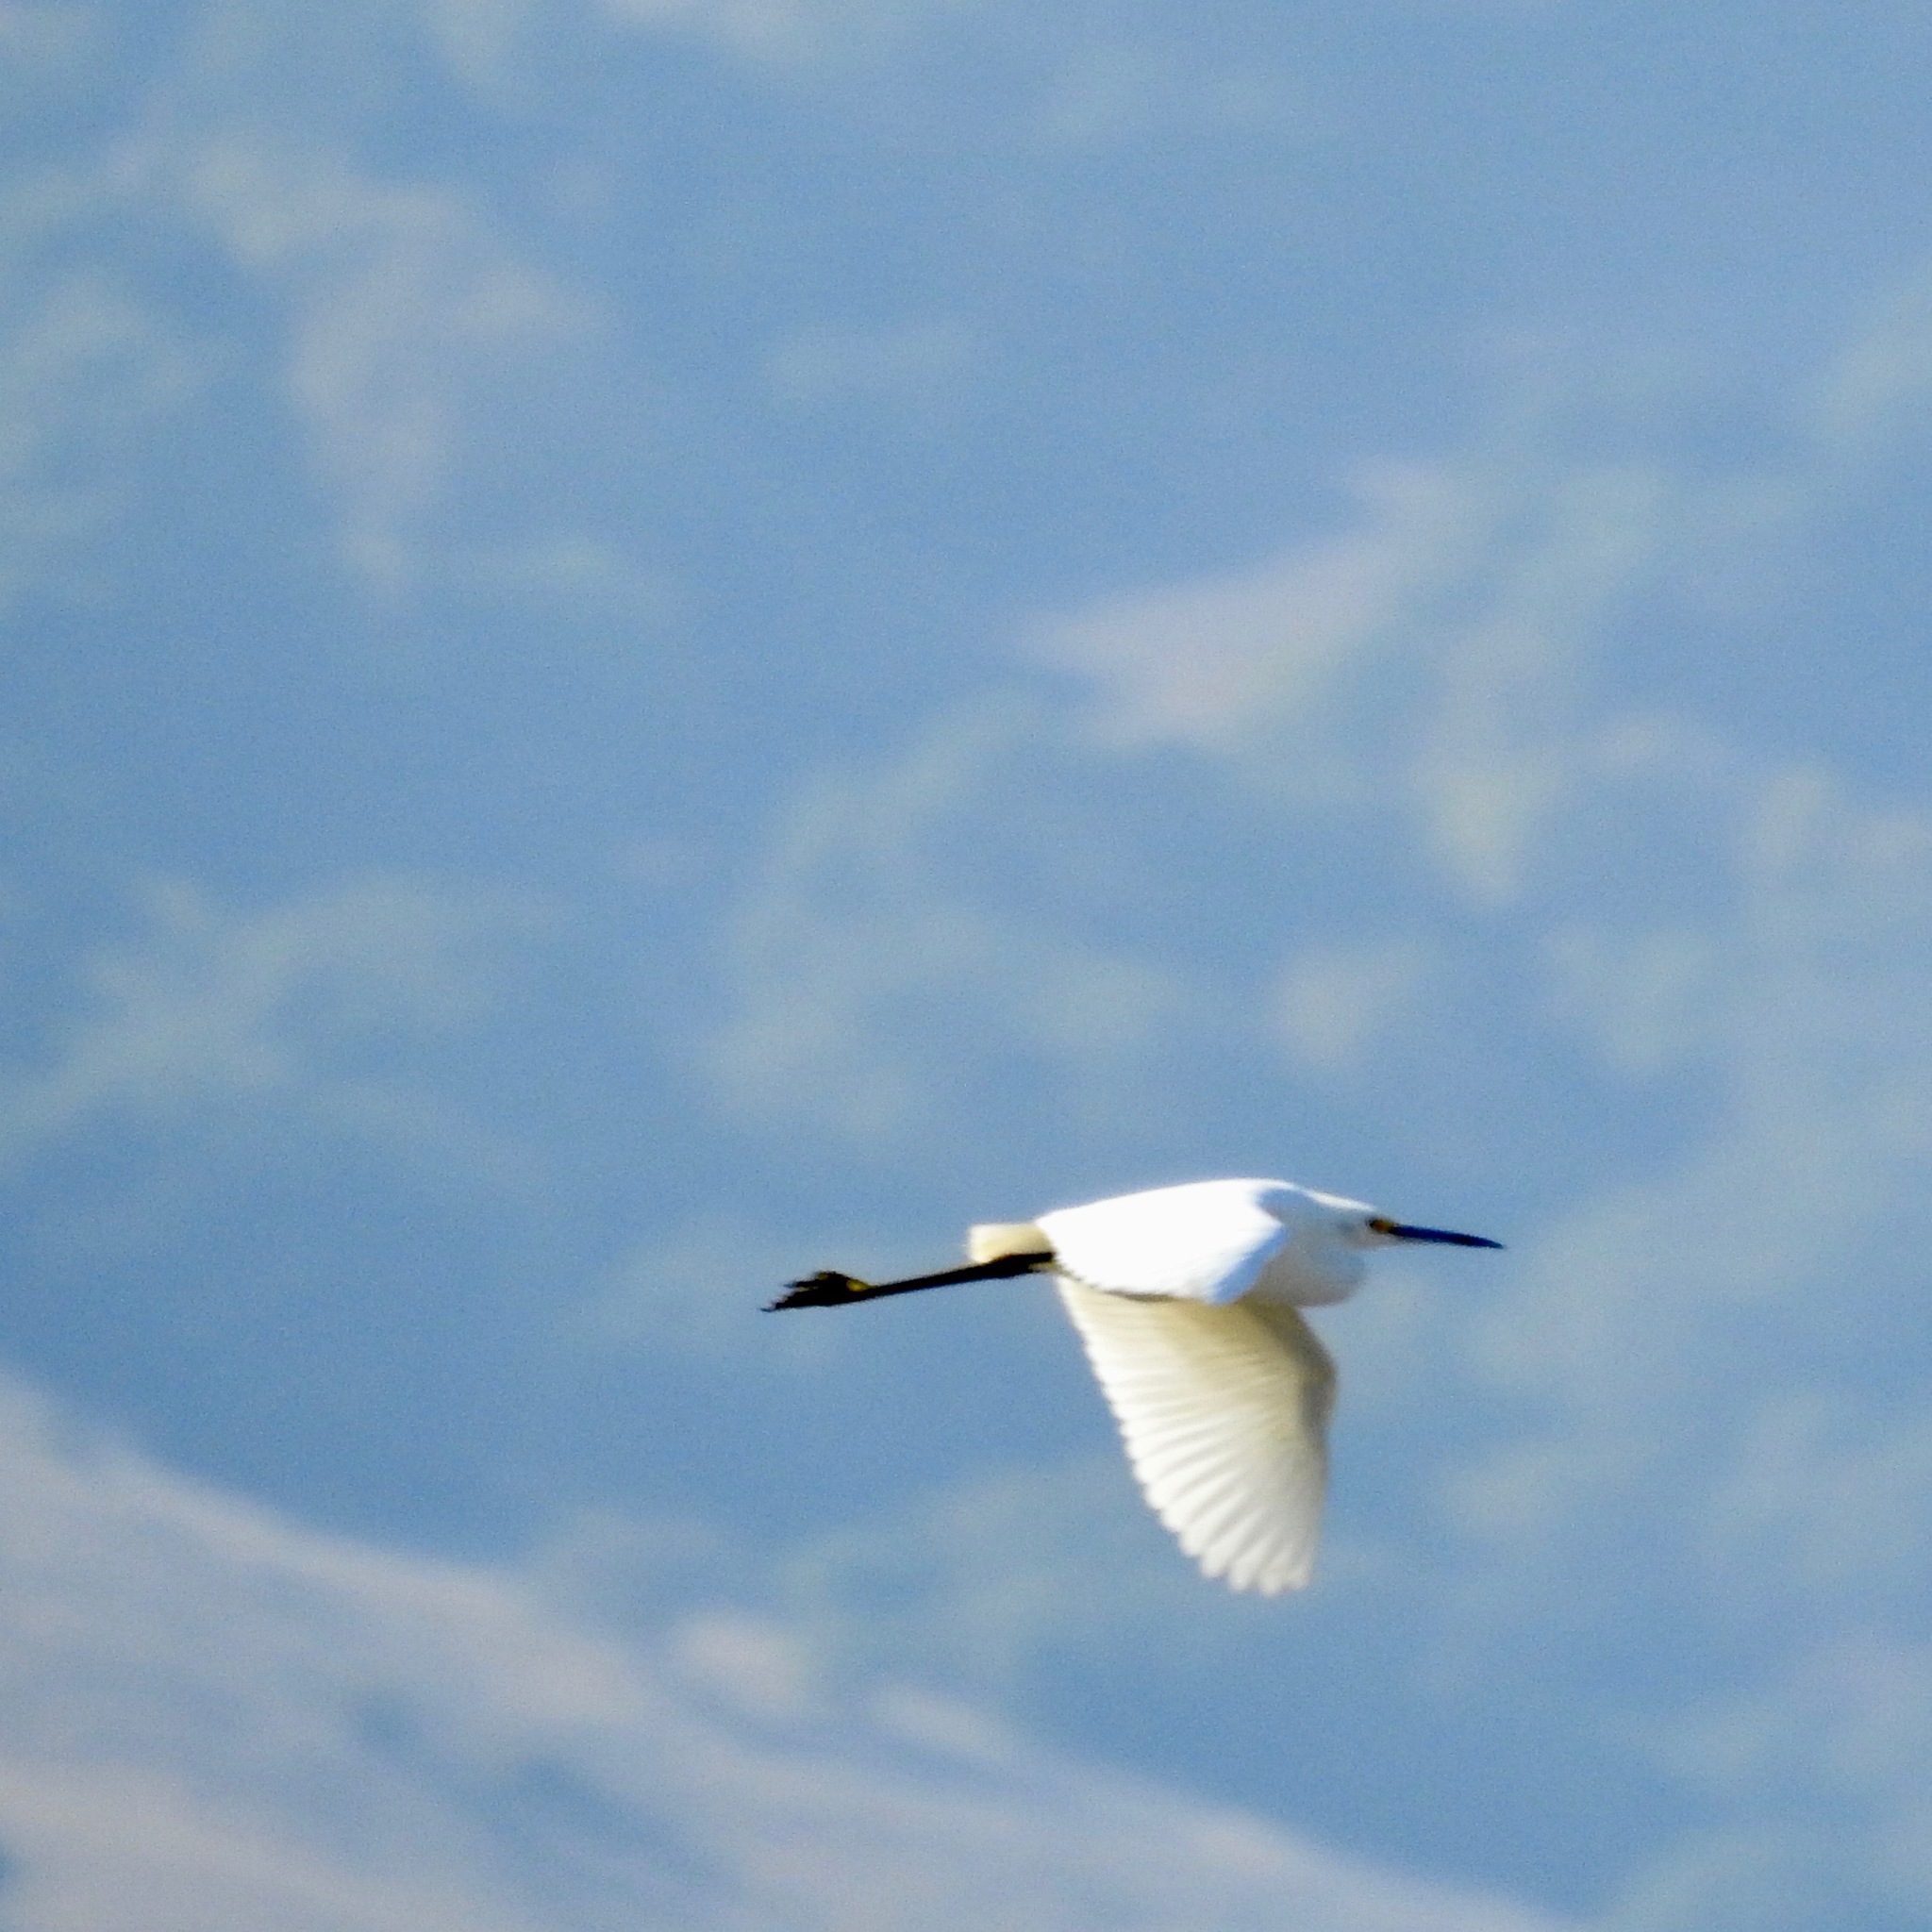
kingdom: Animalia
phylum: Chordata
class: Aves
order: Pelecaniformes
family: Ardeidae
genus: Egretta
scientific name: Egretta thula
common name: Snowy egret
